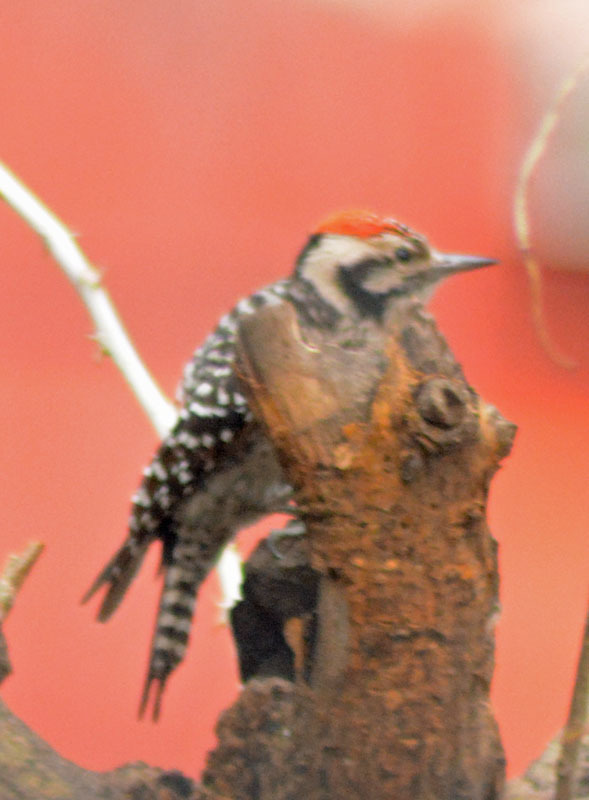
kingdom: Animalia
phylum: Chordata
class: Aves
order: Piciformes
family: Picidae
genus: Dryobates
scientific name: Dryobates scalaris
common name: Ladder-backed woodpecker
